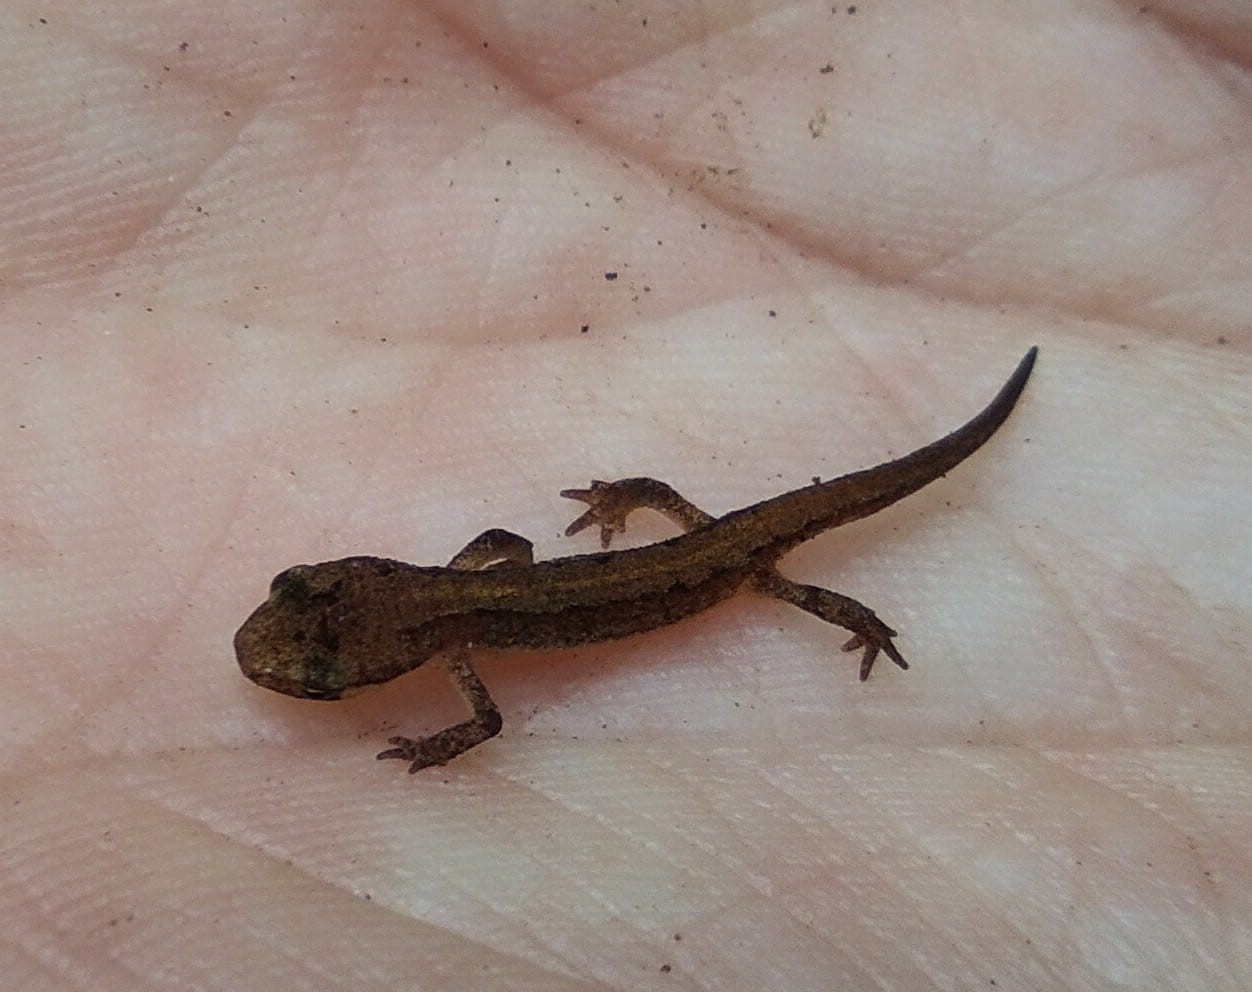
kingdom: Animalia
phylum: Chordata
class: Amphibia
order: Caudata
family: Salamandridae
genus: Lissotriton
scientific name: Lissotriton helveticus
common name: Palmate newt
